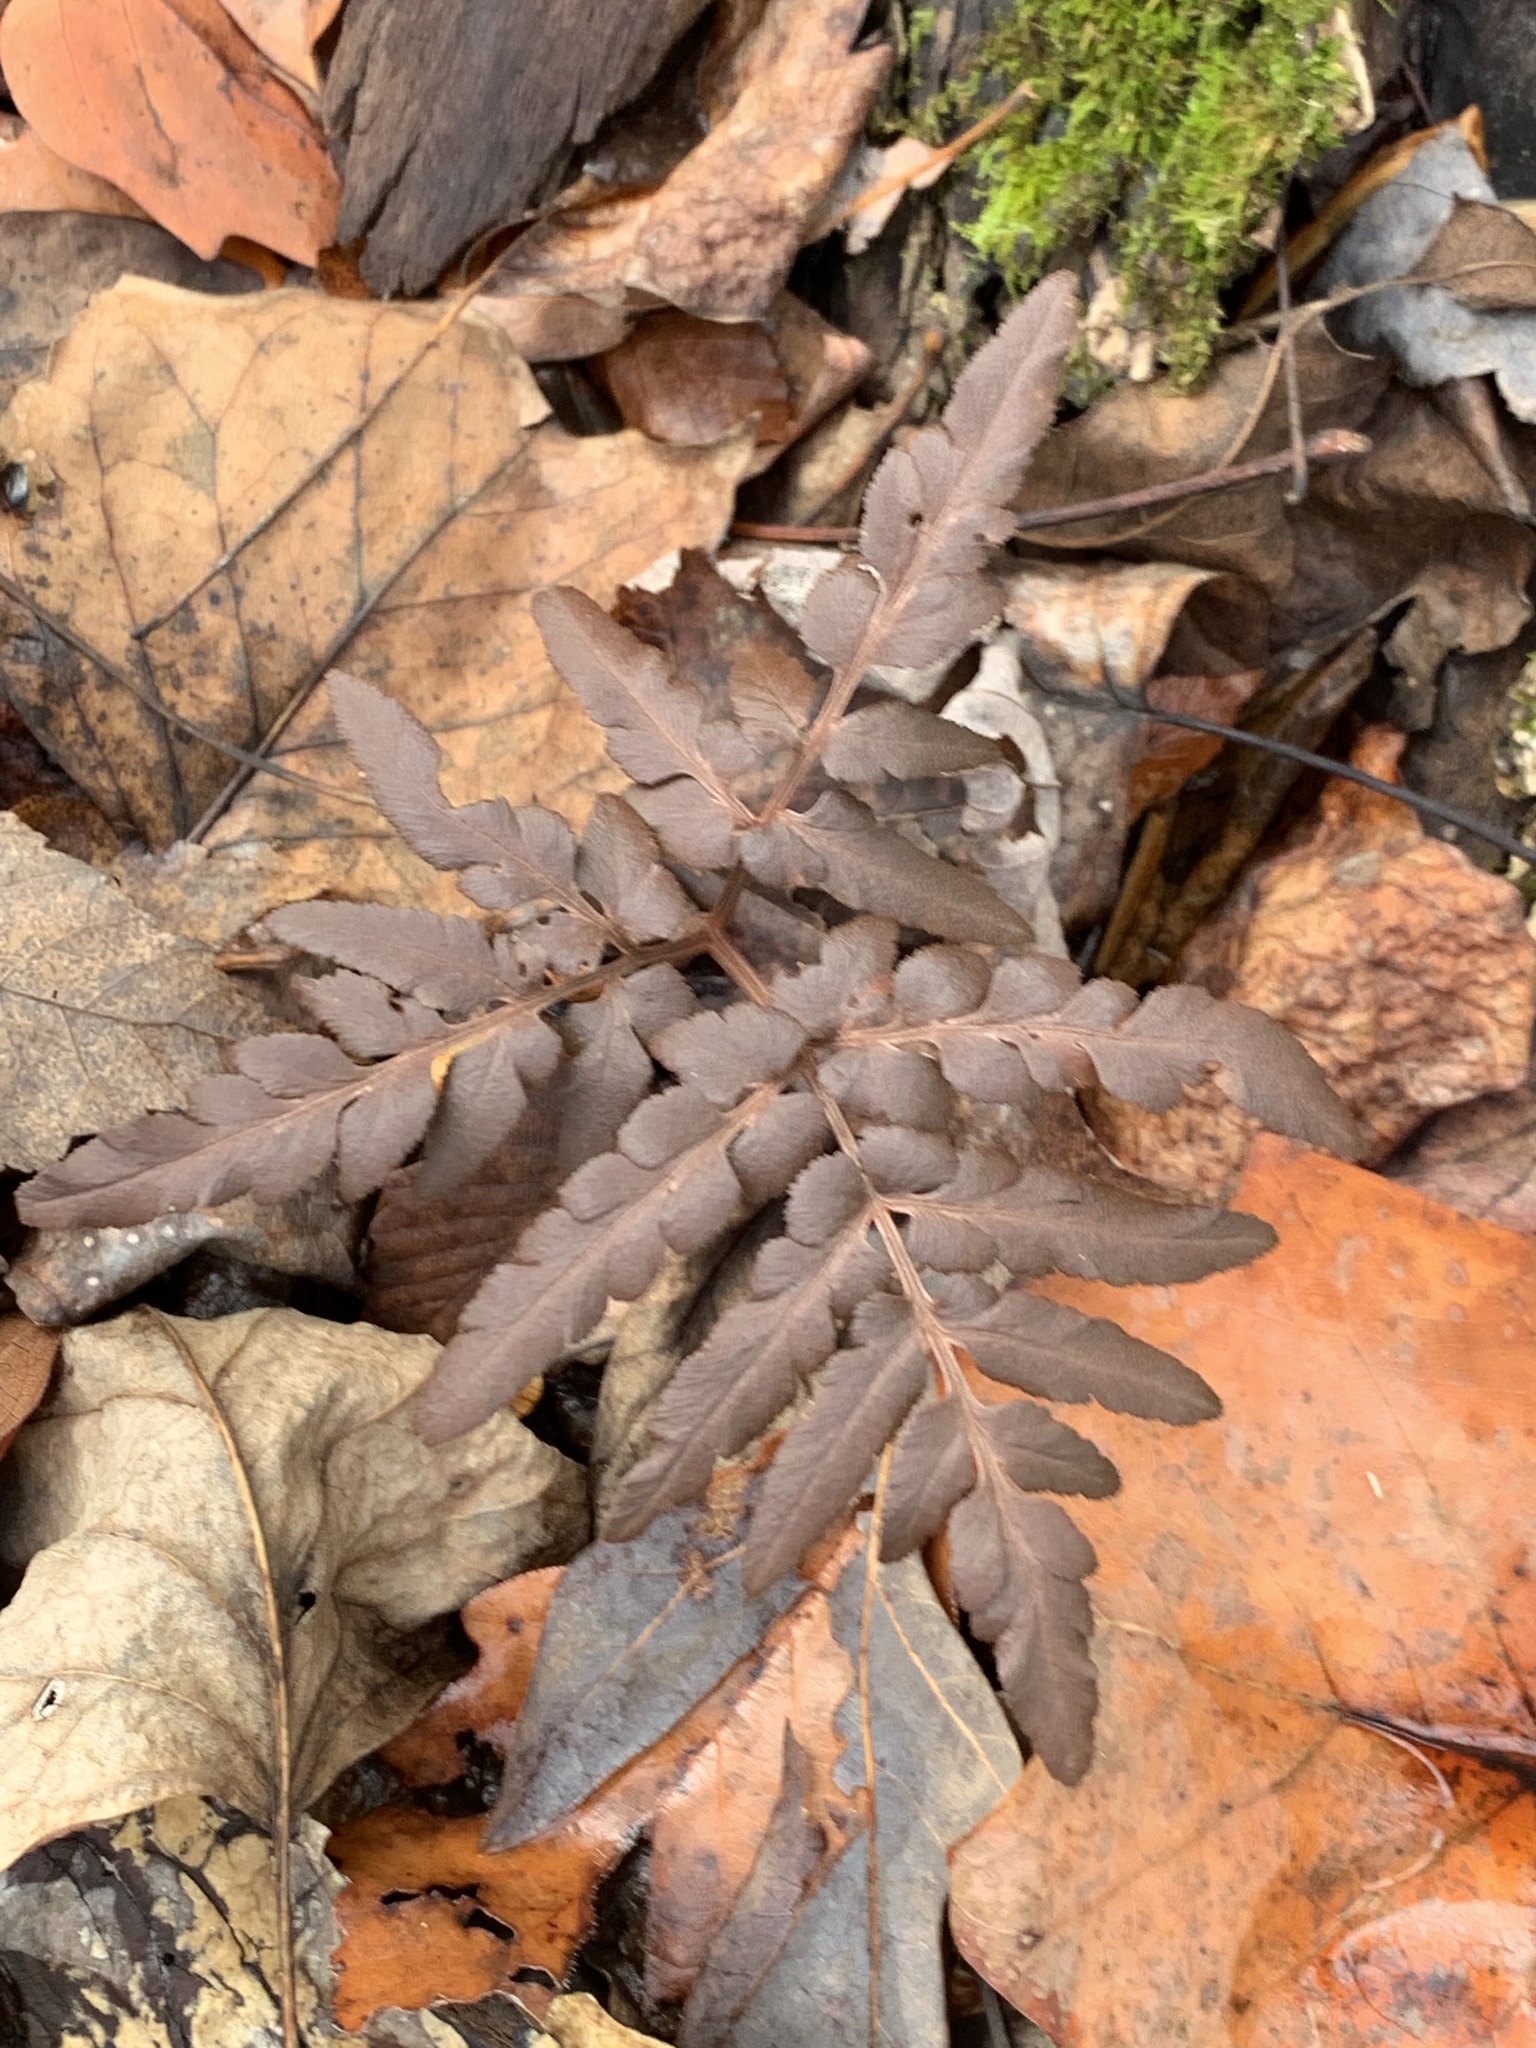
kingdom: Plantae
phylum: Tracheophyta
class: Polypodiopsida
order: Ophioglossales
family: Ophioglossaceae
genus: Sceptridium
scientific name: Sceptridium dissectum
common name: Cut-leaved grapefern
